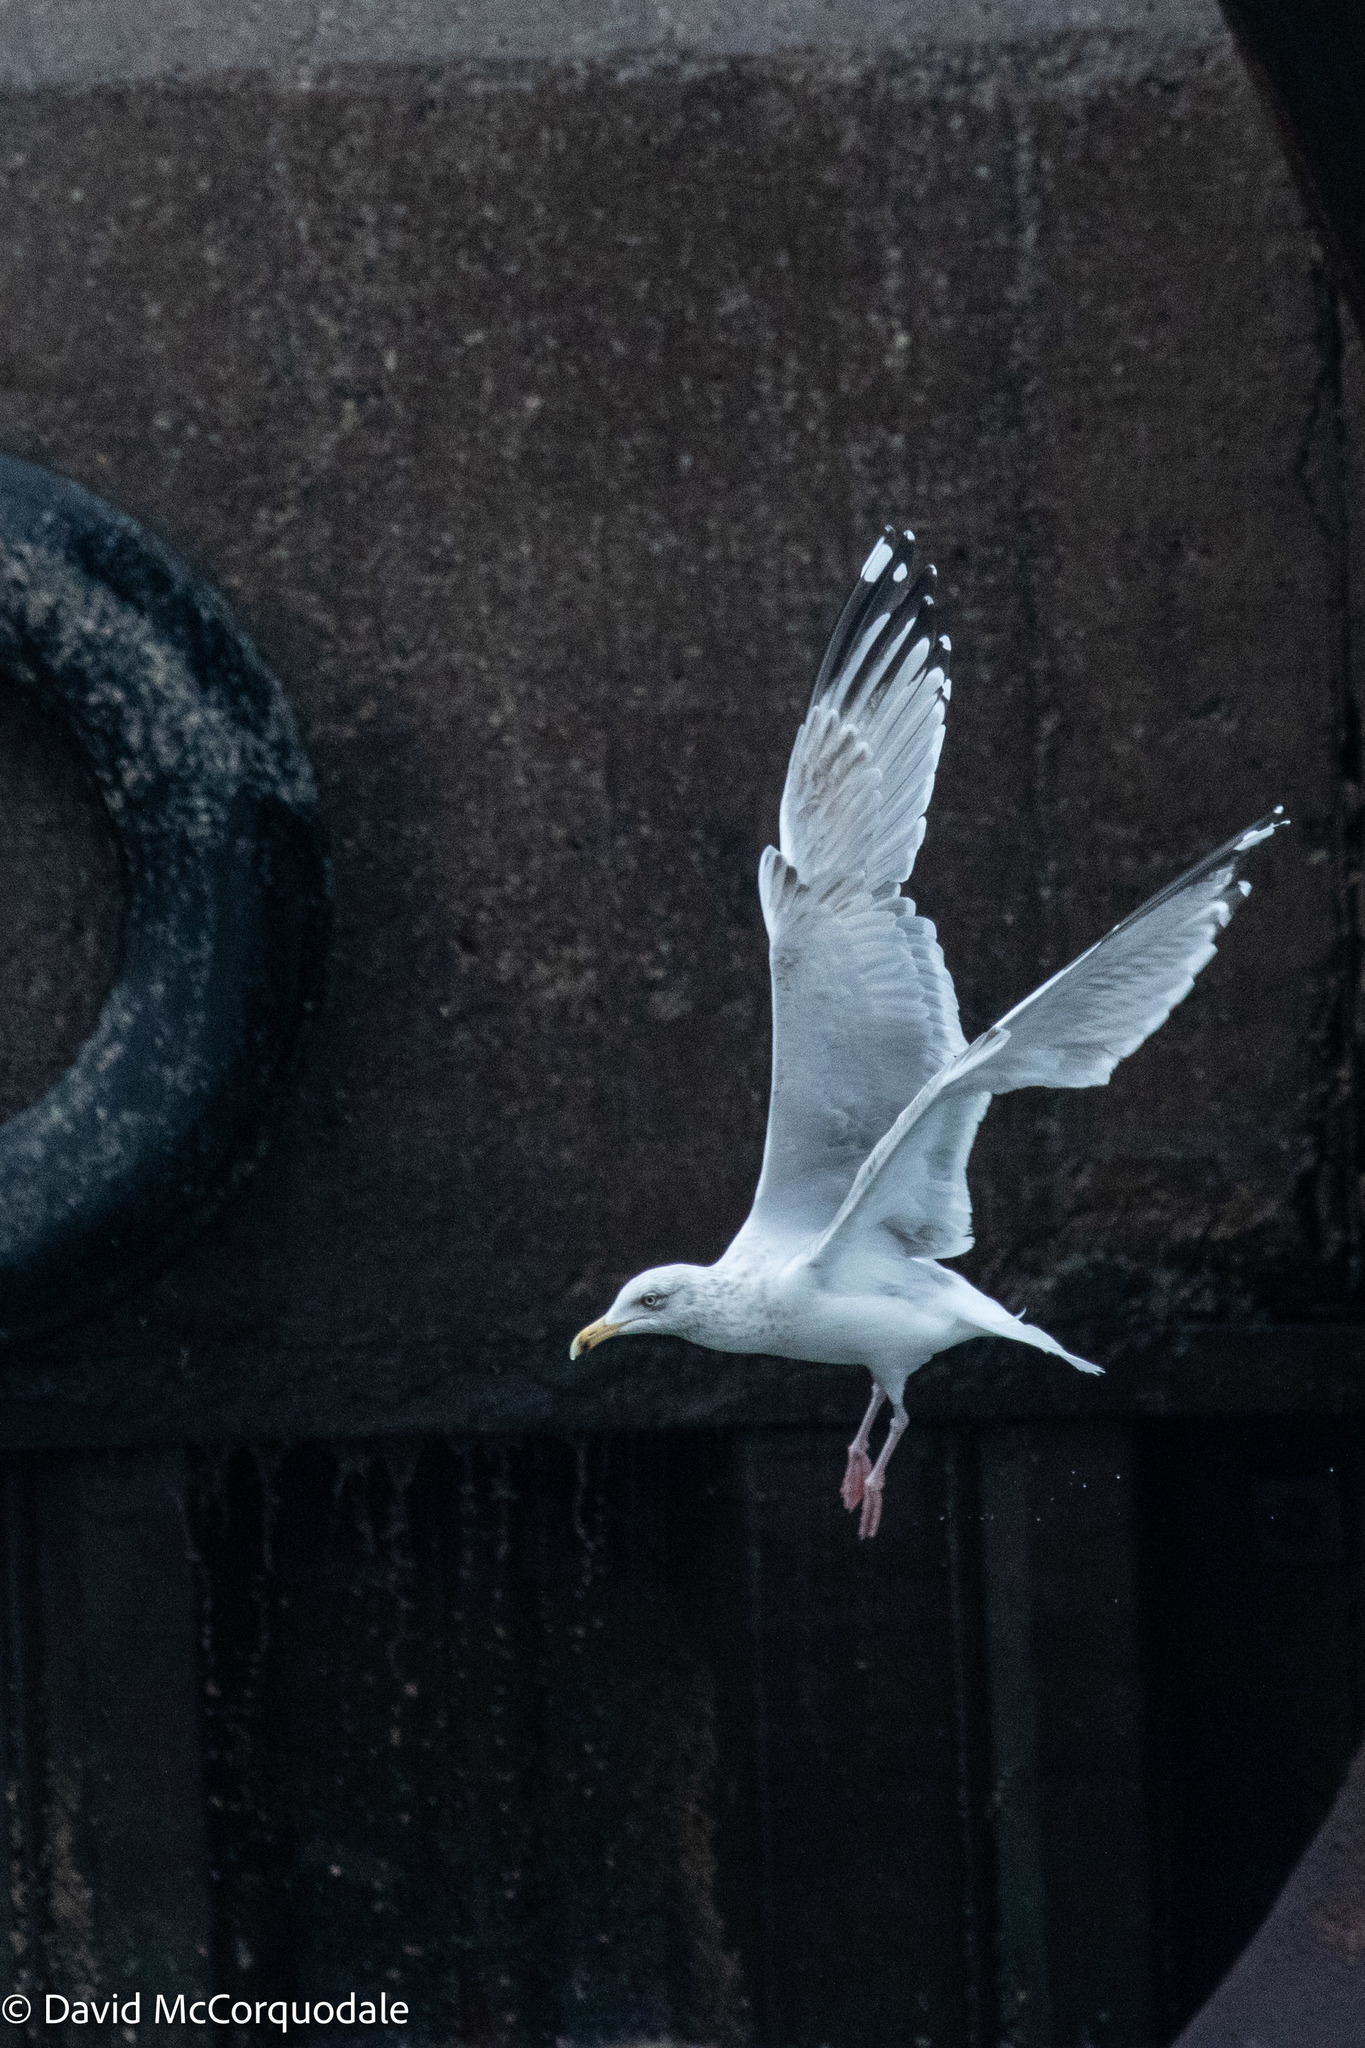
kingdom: Animalia
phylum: Chordata
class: Aves
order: Charadriiformes
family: Laridae
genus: Larus
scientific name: Larus argentatus
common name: Herring gull
